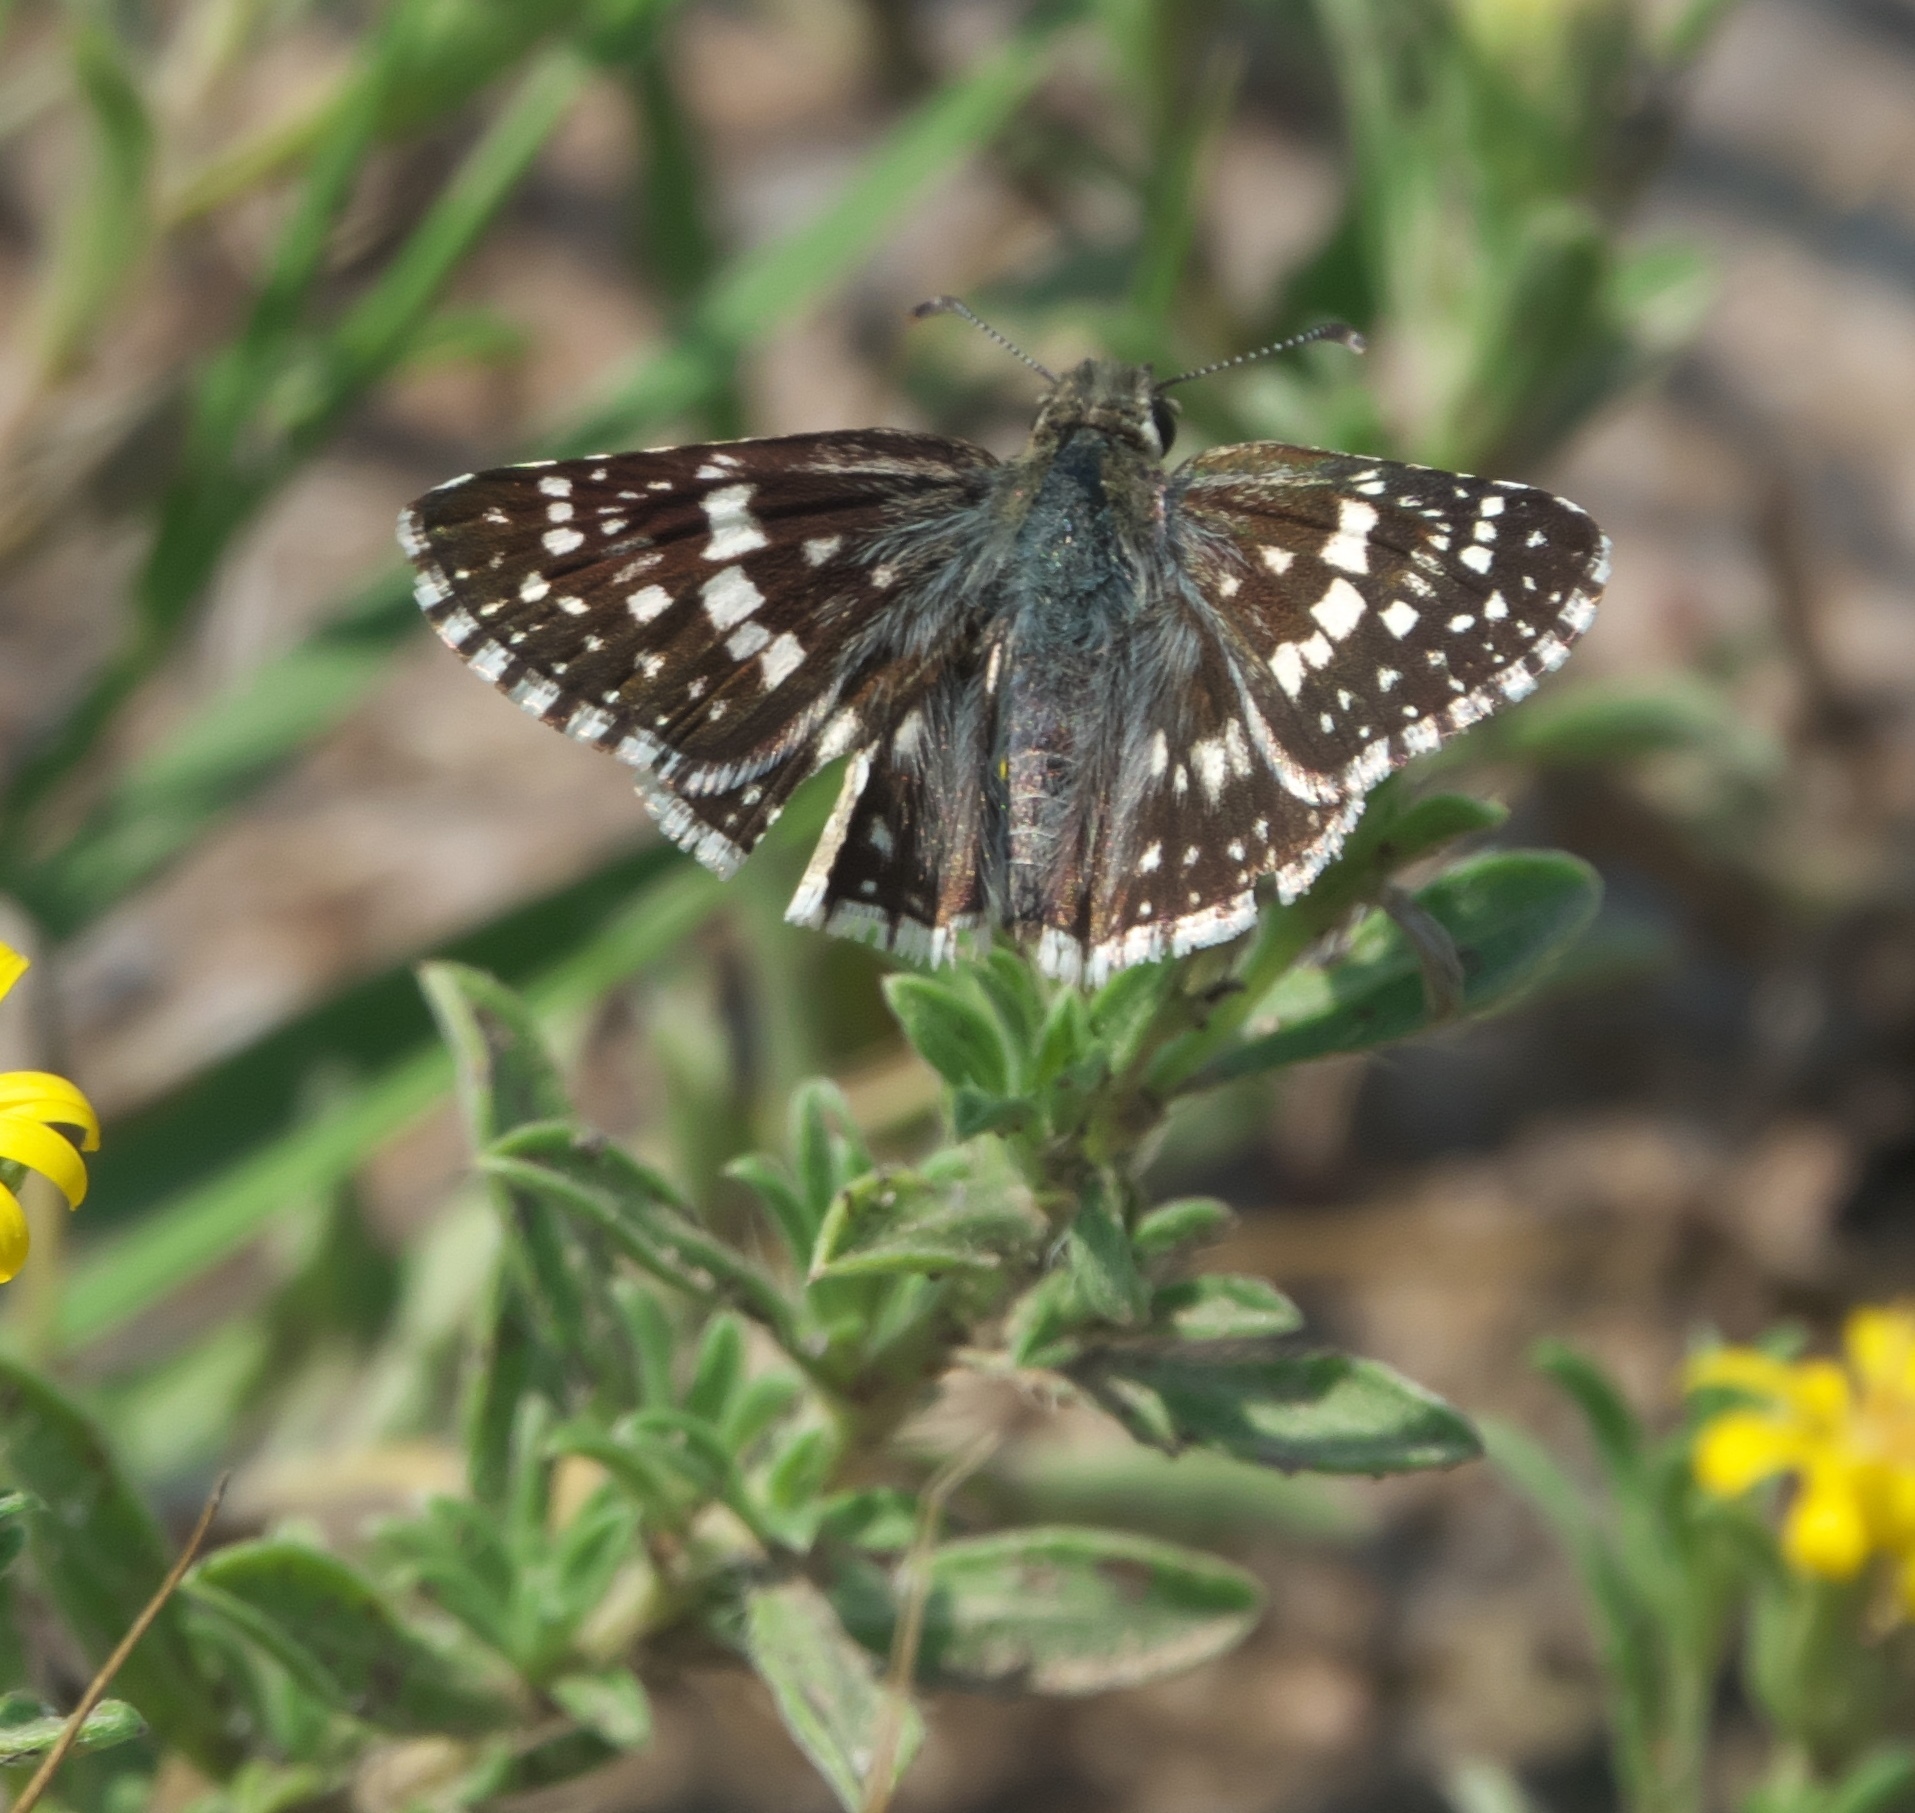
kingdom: Animalia
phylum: Arthropoda
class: Insecta
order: Lepidoptera
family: Hesperiidae
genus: Burnsius
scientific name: Burnsius communis
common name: Common checkered-skipper
